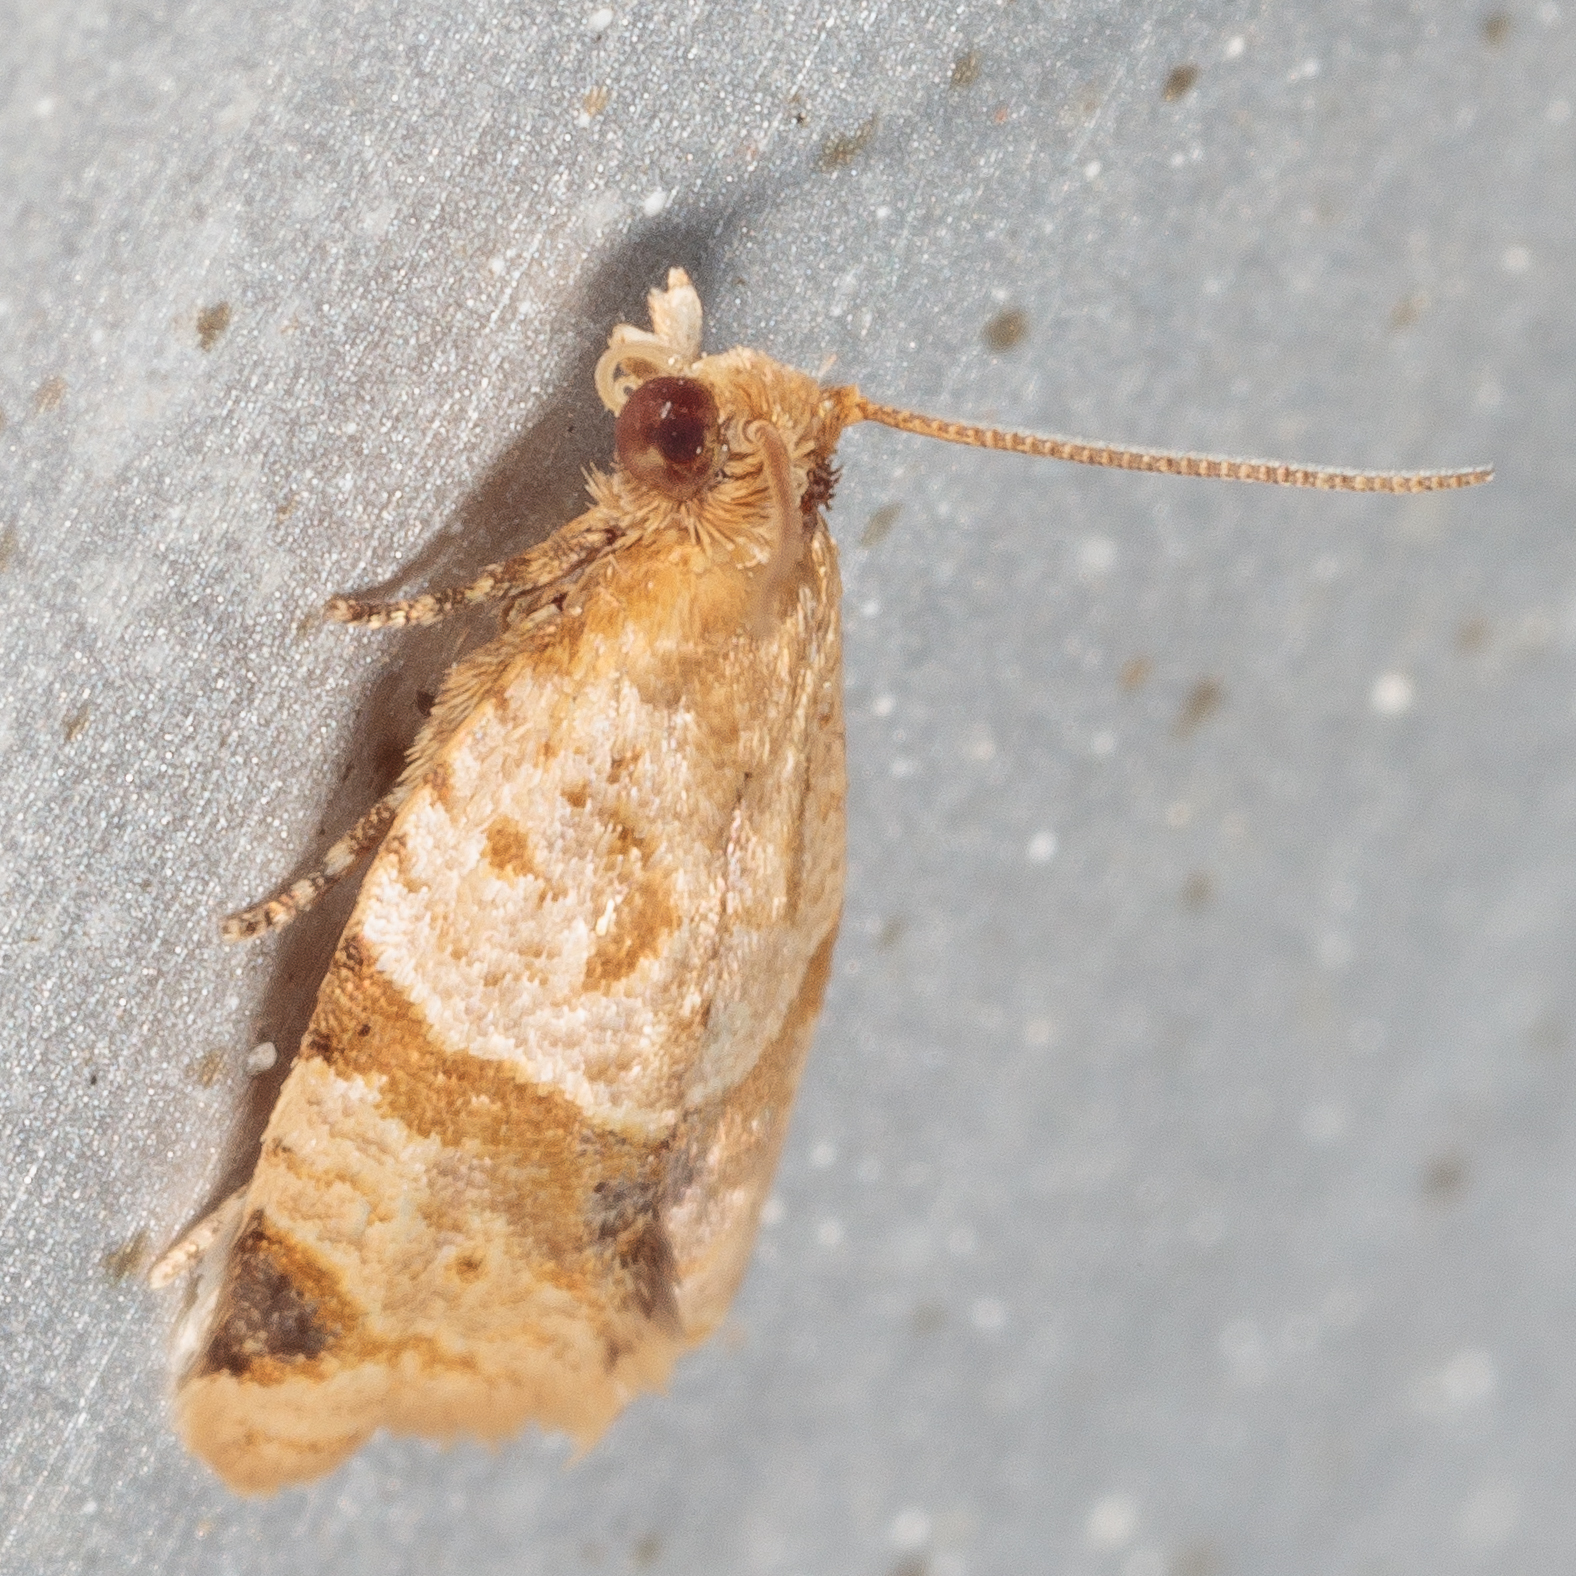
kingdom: Animalia
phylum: Arthropoda
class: Insecta
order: Lepidoptera
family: Tortricidae
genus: Clepsis
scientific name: Clepsis peritana
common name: Garden tortrix
